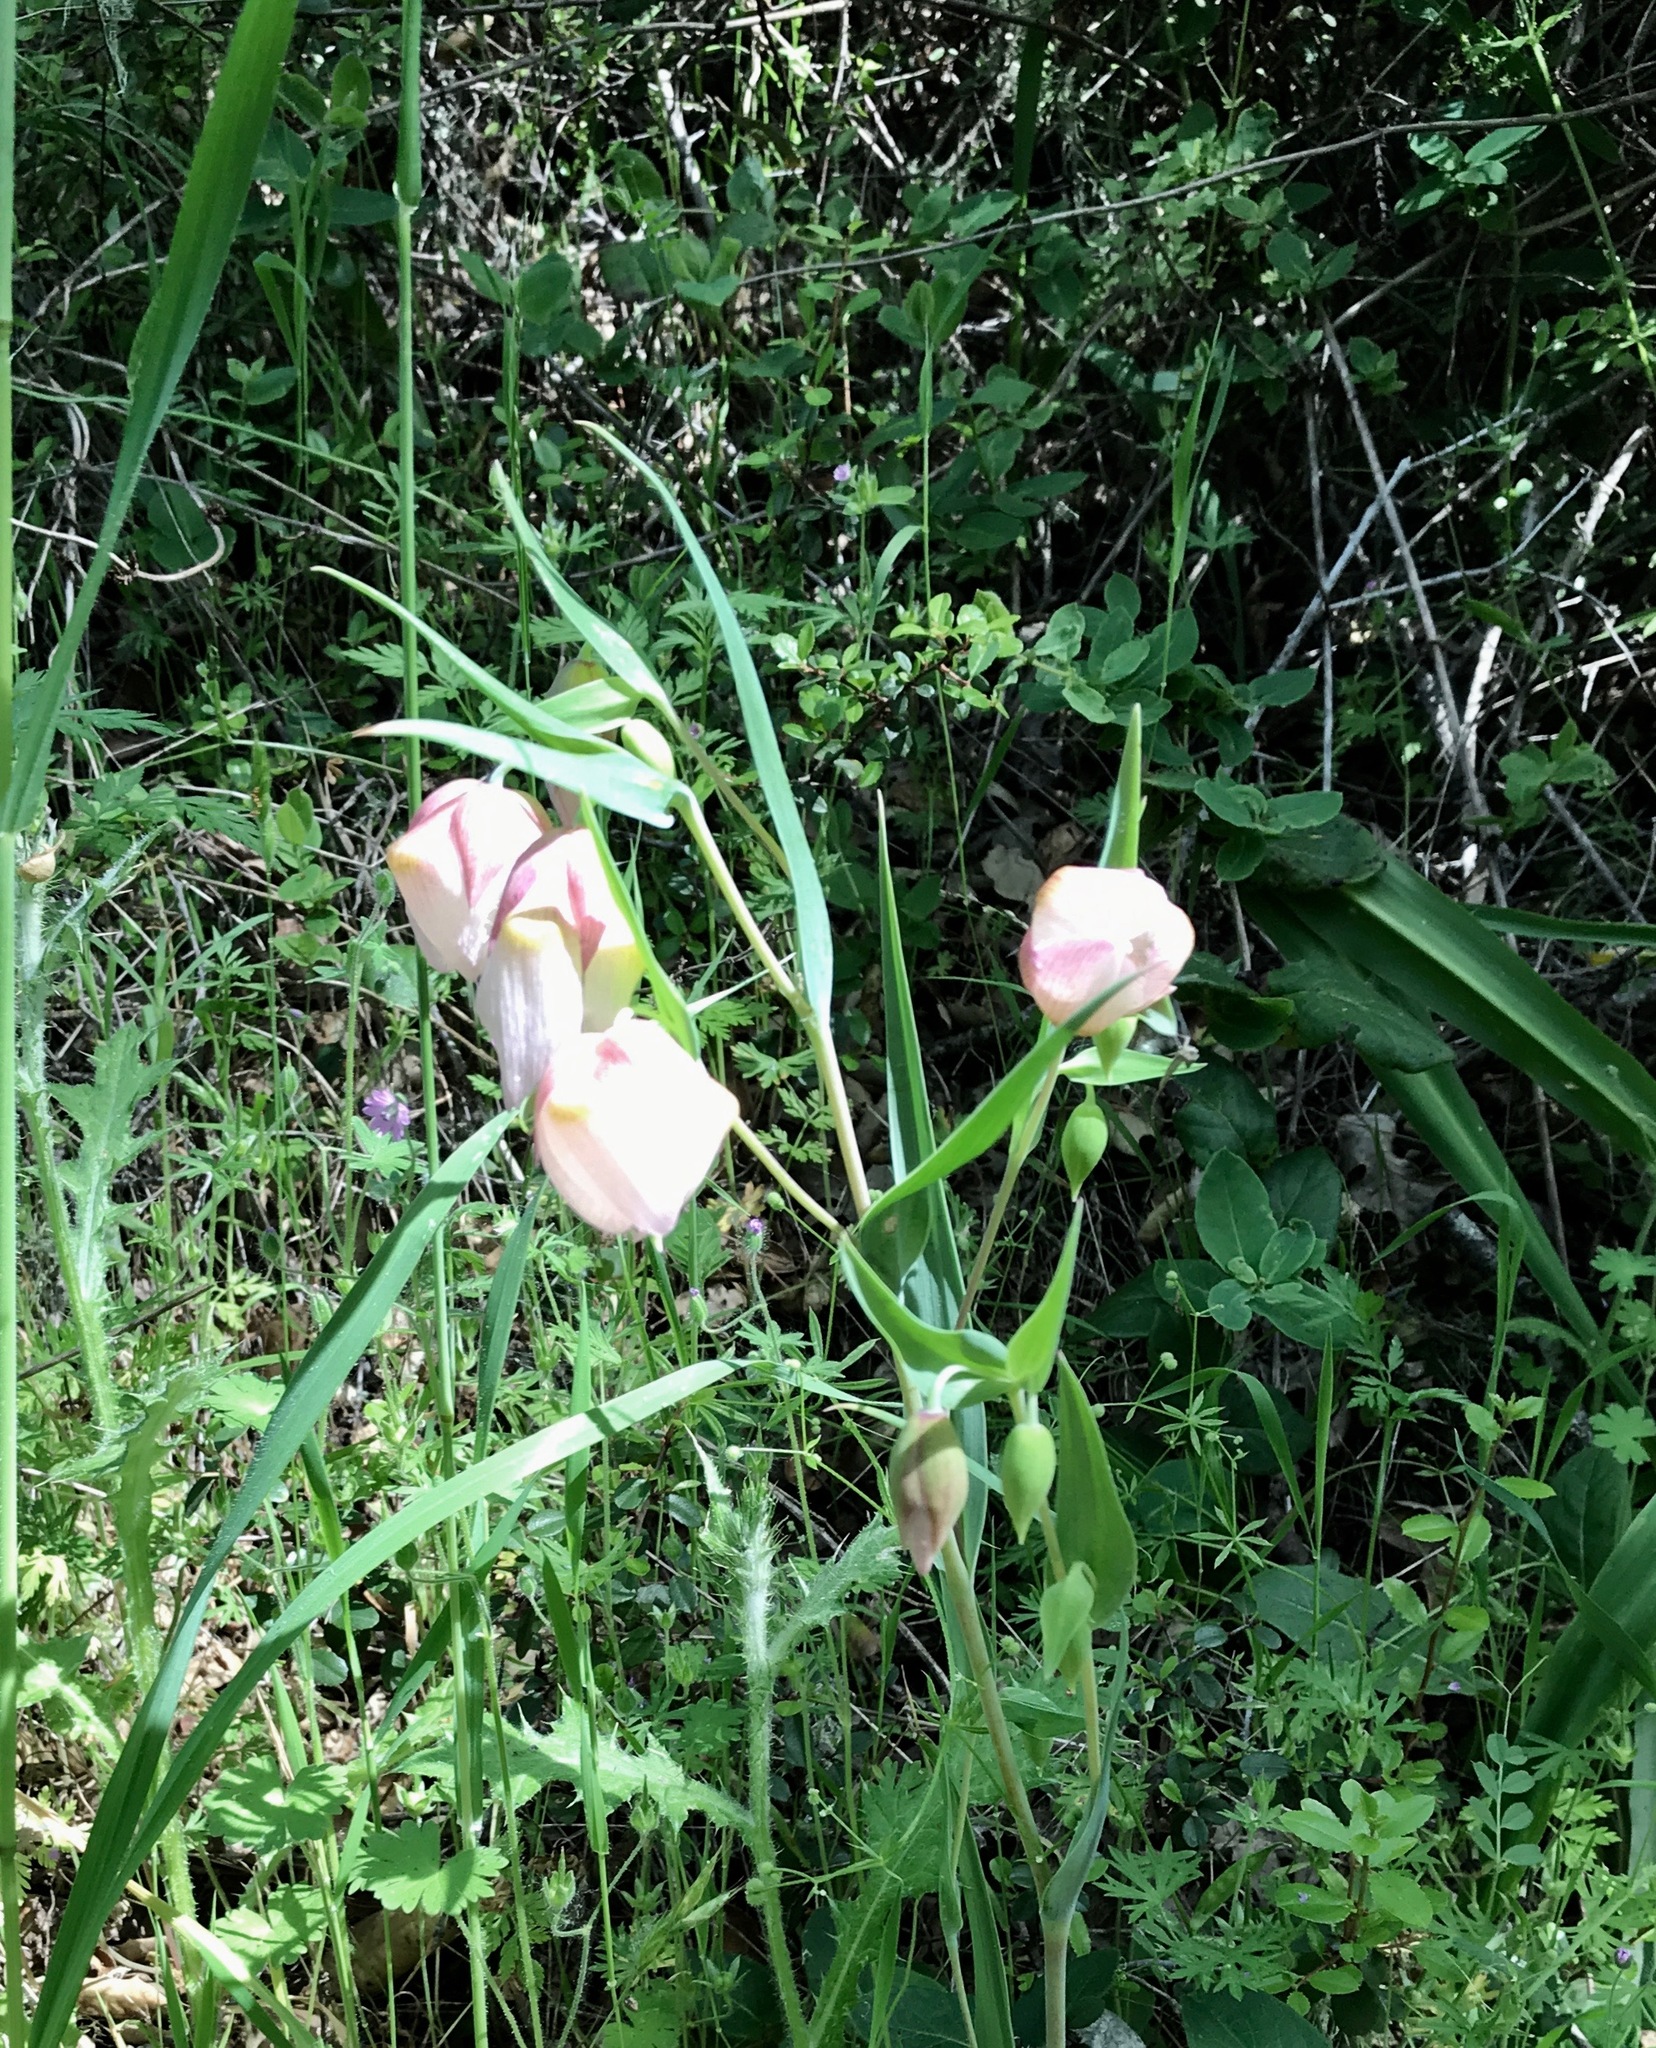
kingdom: Plantae
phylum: Tracheophyta
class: Liliopsida
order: Liliales
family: Liliaceae
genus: Calochortus
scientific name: Calochortus albus
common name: Fairy-lantern
